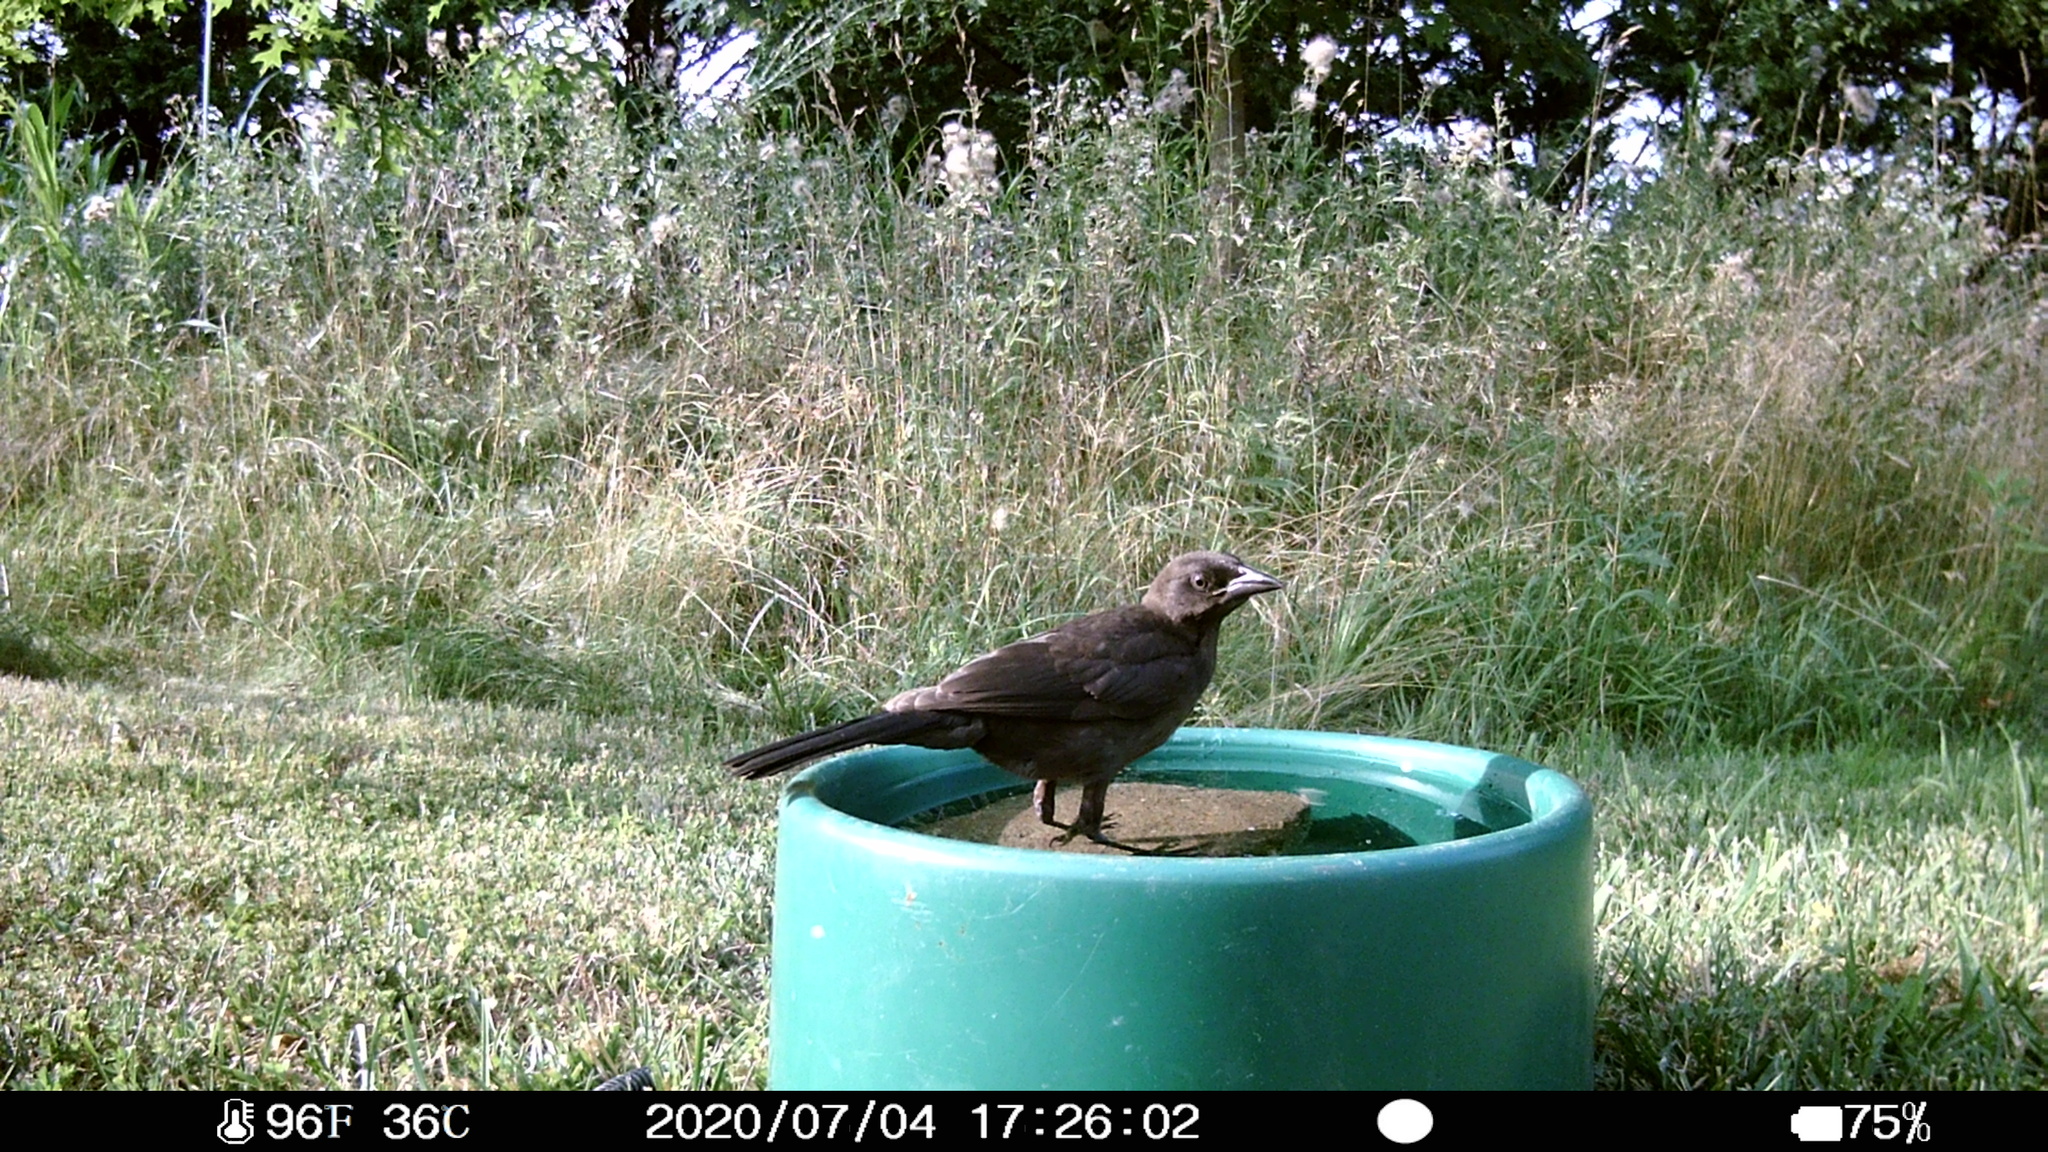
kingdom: Animalia
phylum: Chordata
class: Aves
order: Passeriformes
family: Icteridae
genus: Quiscalus
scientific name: Quiscalus quiscula
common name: Common grackle
